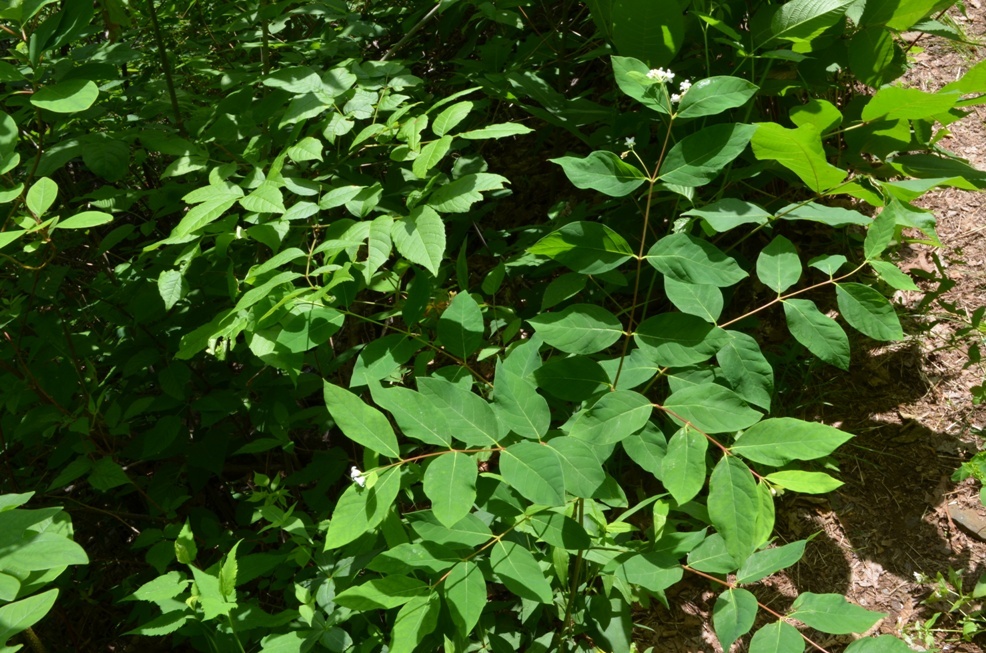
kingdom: Plantae
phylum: Tracheophyta
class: Magnoliopsida
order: Gentianales
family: Apocynaceae
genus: Apocynum
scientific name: Apocynum androsaemifolium
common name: Spreading dogbane
